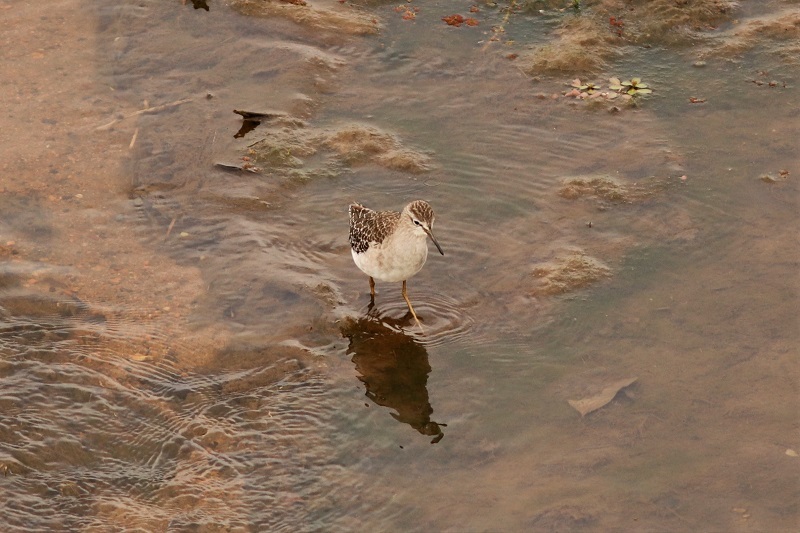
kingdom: Animalia
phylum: Chordata
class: Aves
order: Charadriiformes
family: Scolopacidae
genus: Tringa
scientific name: Tringa glareola
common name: Wood sandpiper
